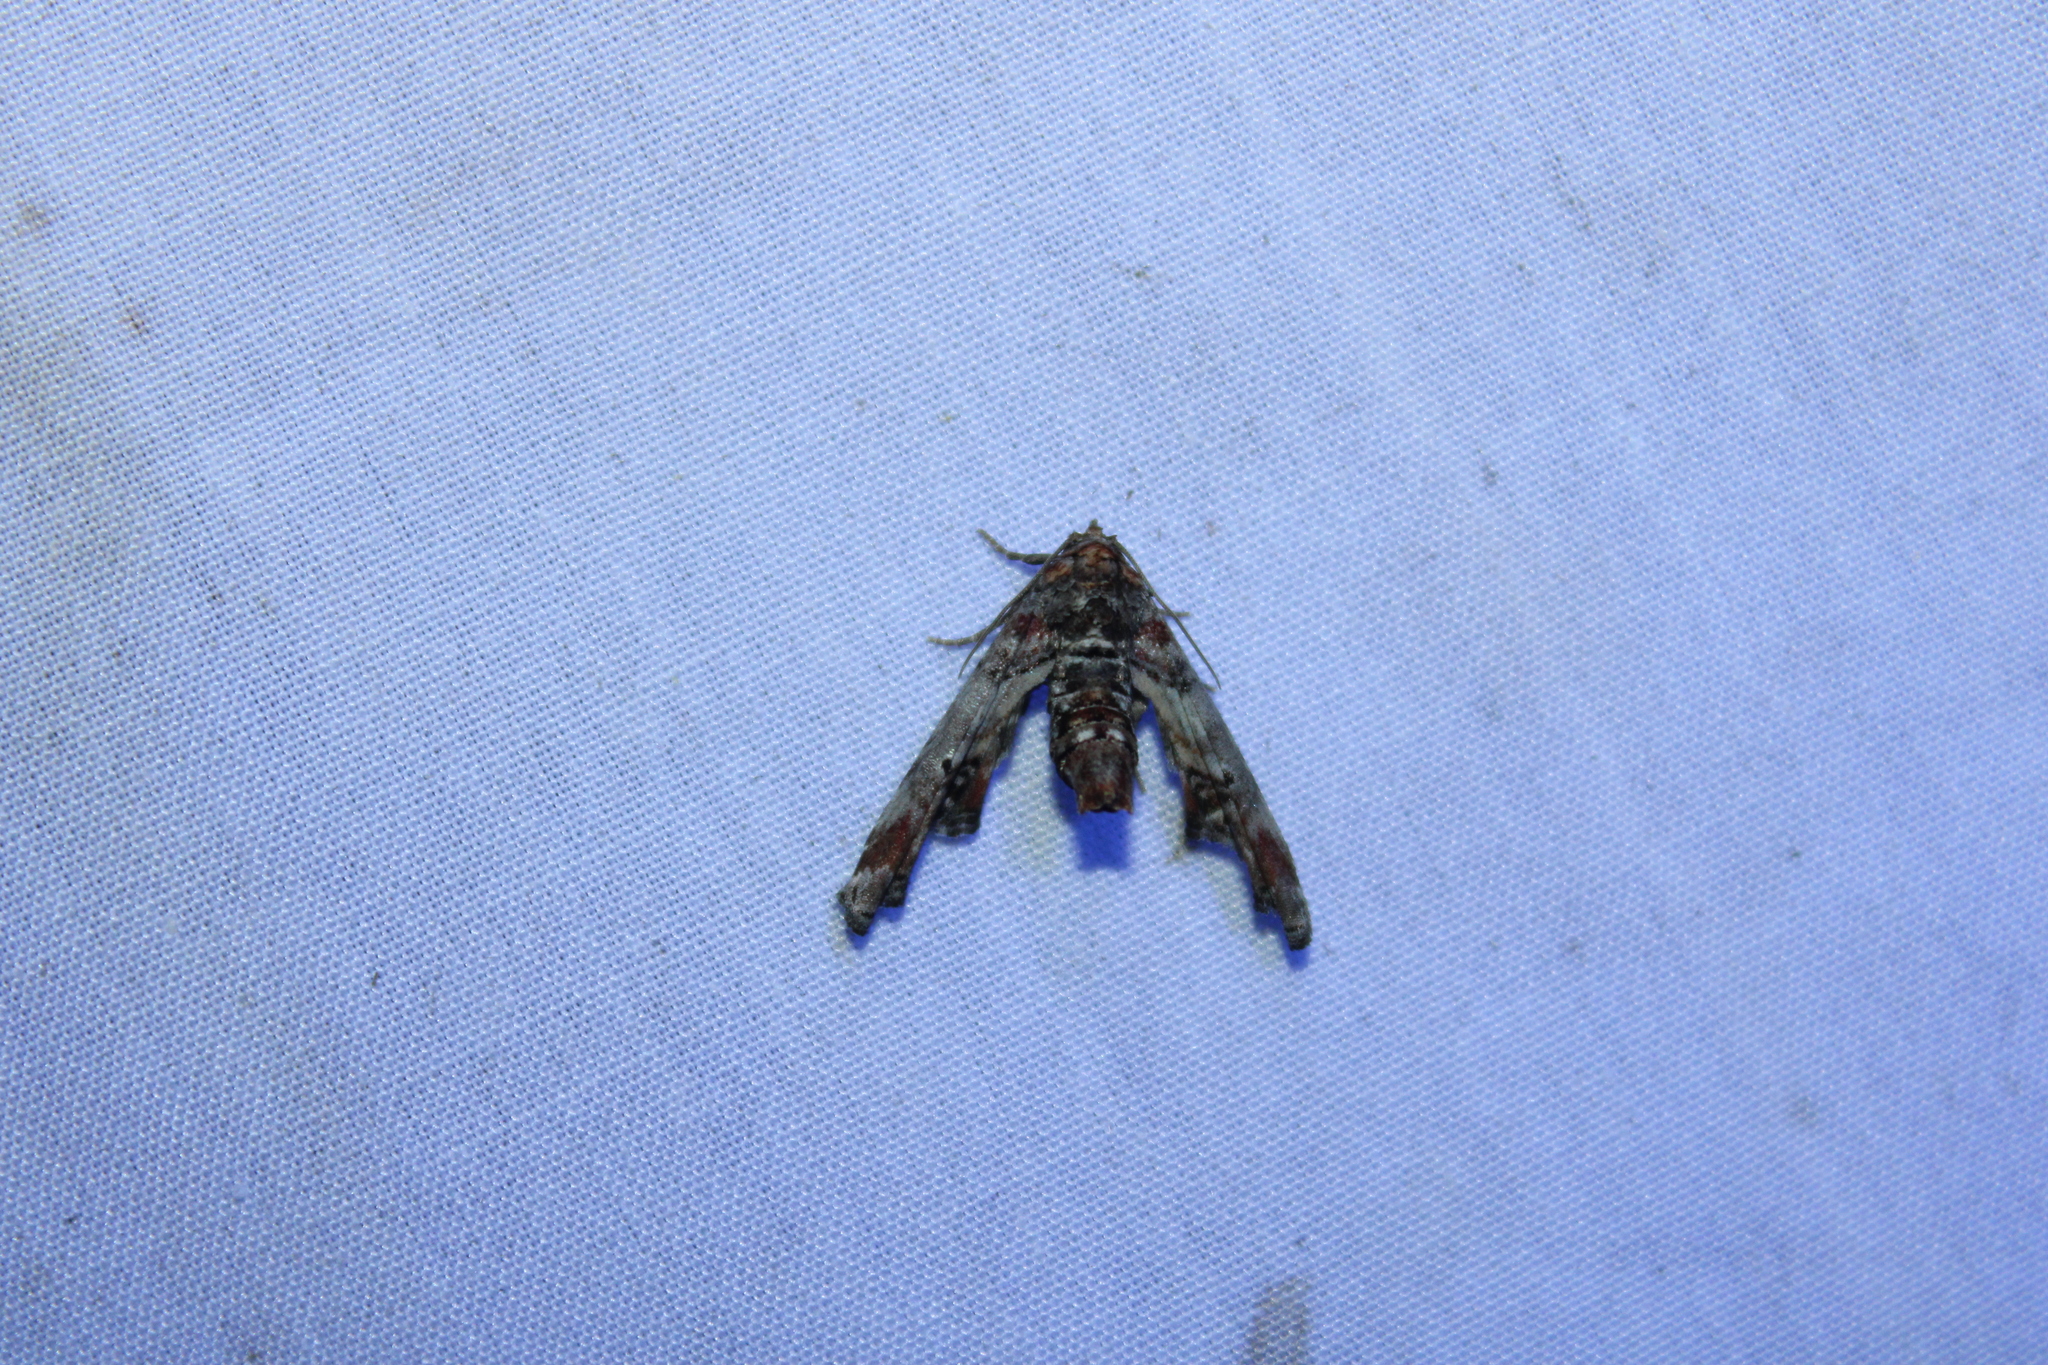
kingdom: Animalia
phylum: Arthropoda
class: Insecta
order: Lepidoptera
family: Euteliidae
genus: Marathyssa
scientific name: Marathyssa inficita
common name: Dark marathyssa moth
